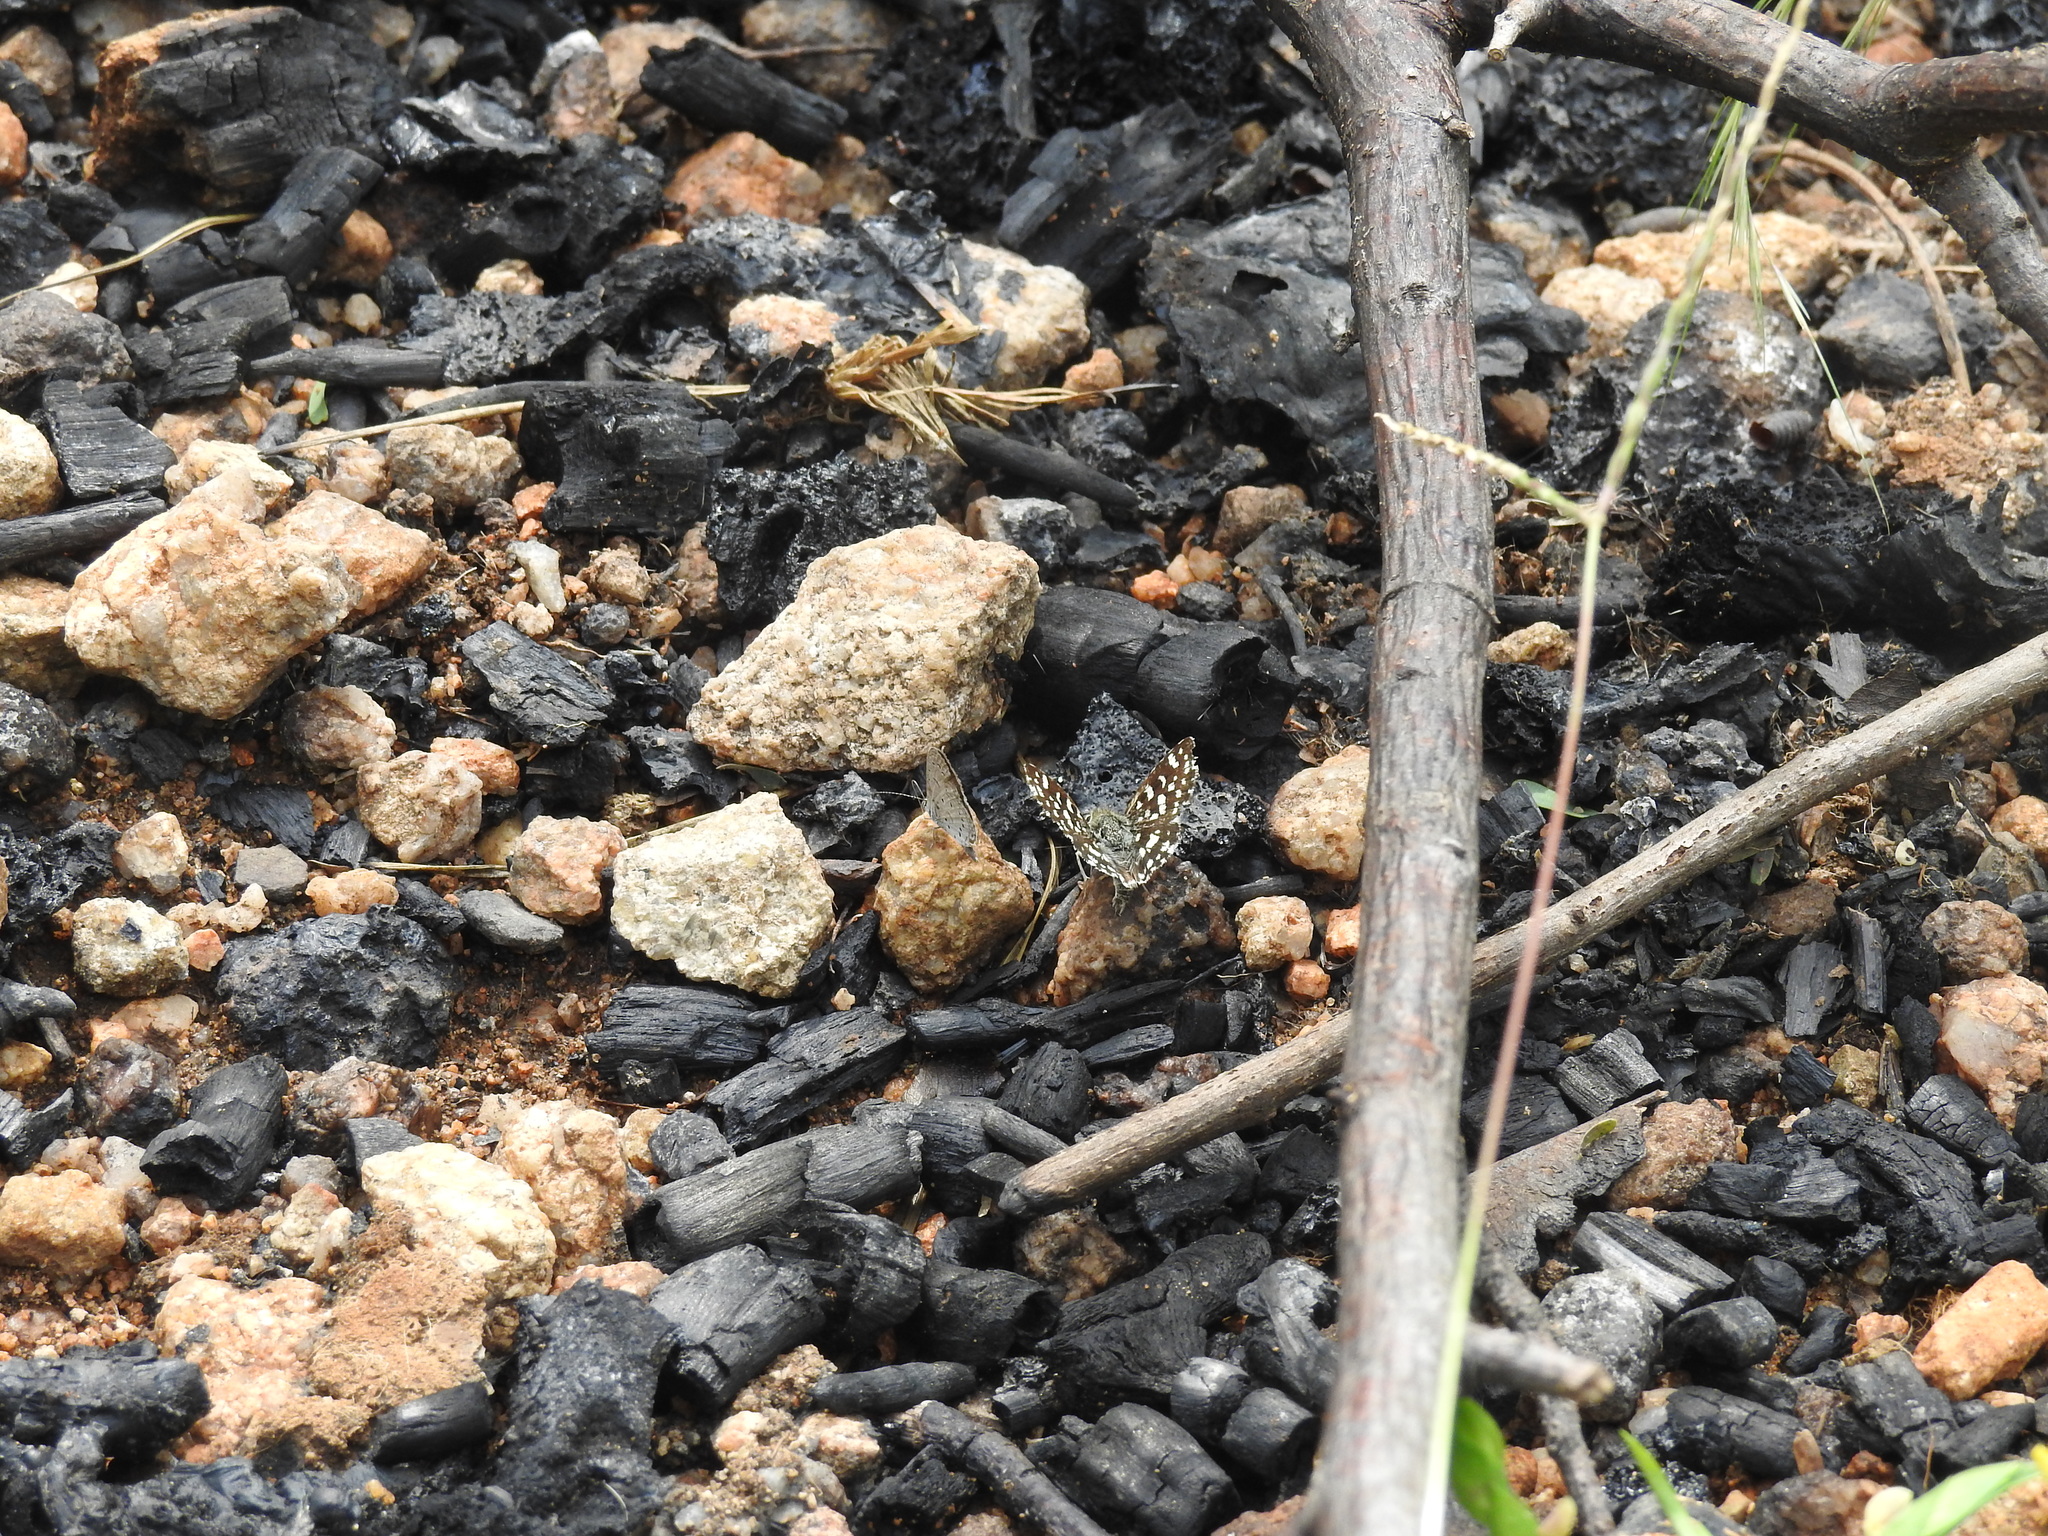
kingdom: Animalia
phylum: Arthropoda
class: Insecta
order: Lepidoptera
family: Lycaenidae
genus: Zizula
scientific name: Zizula hylax
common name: Gaika blue
